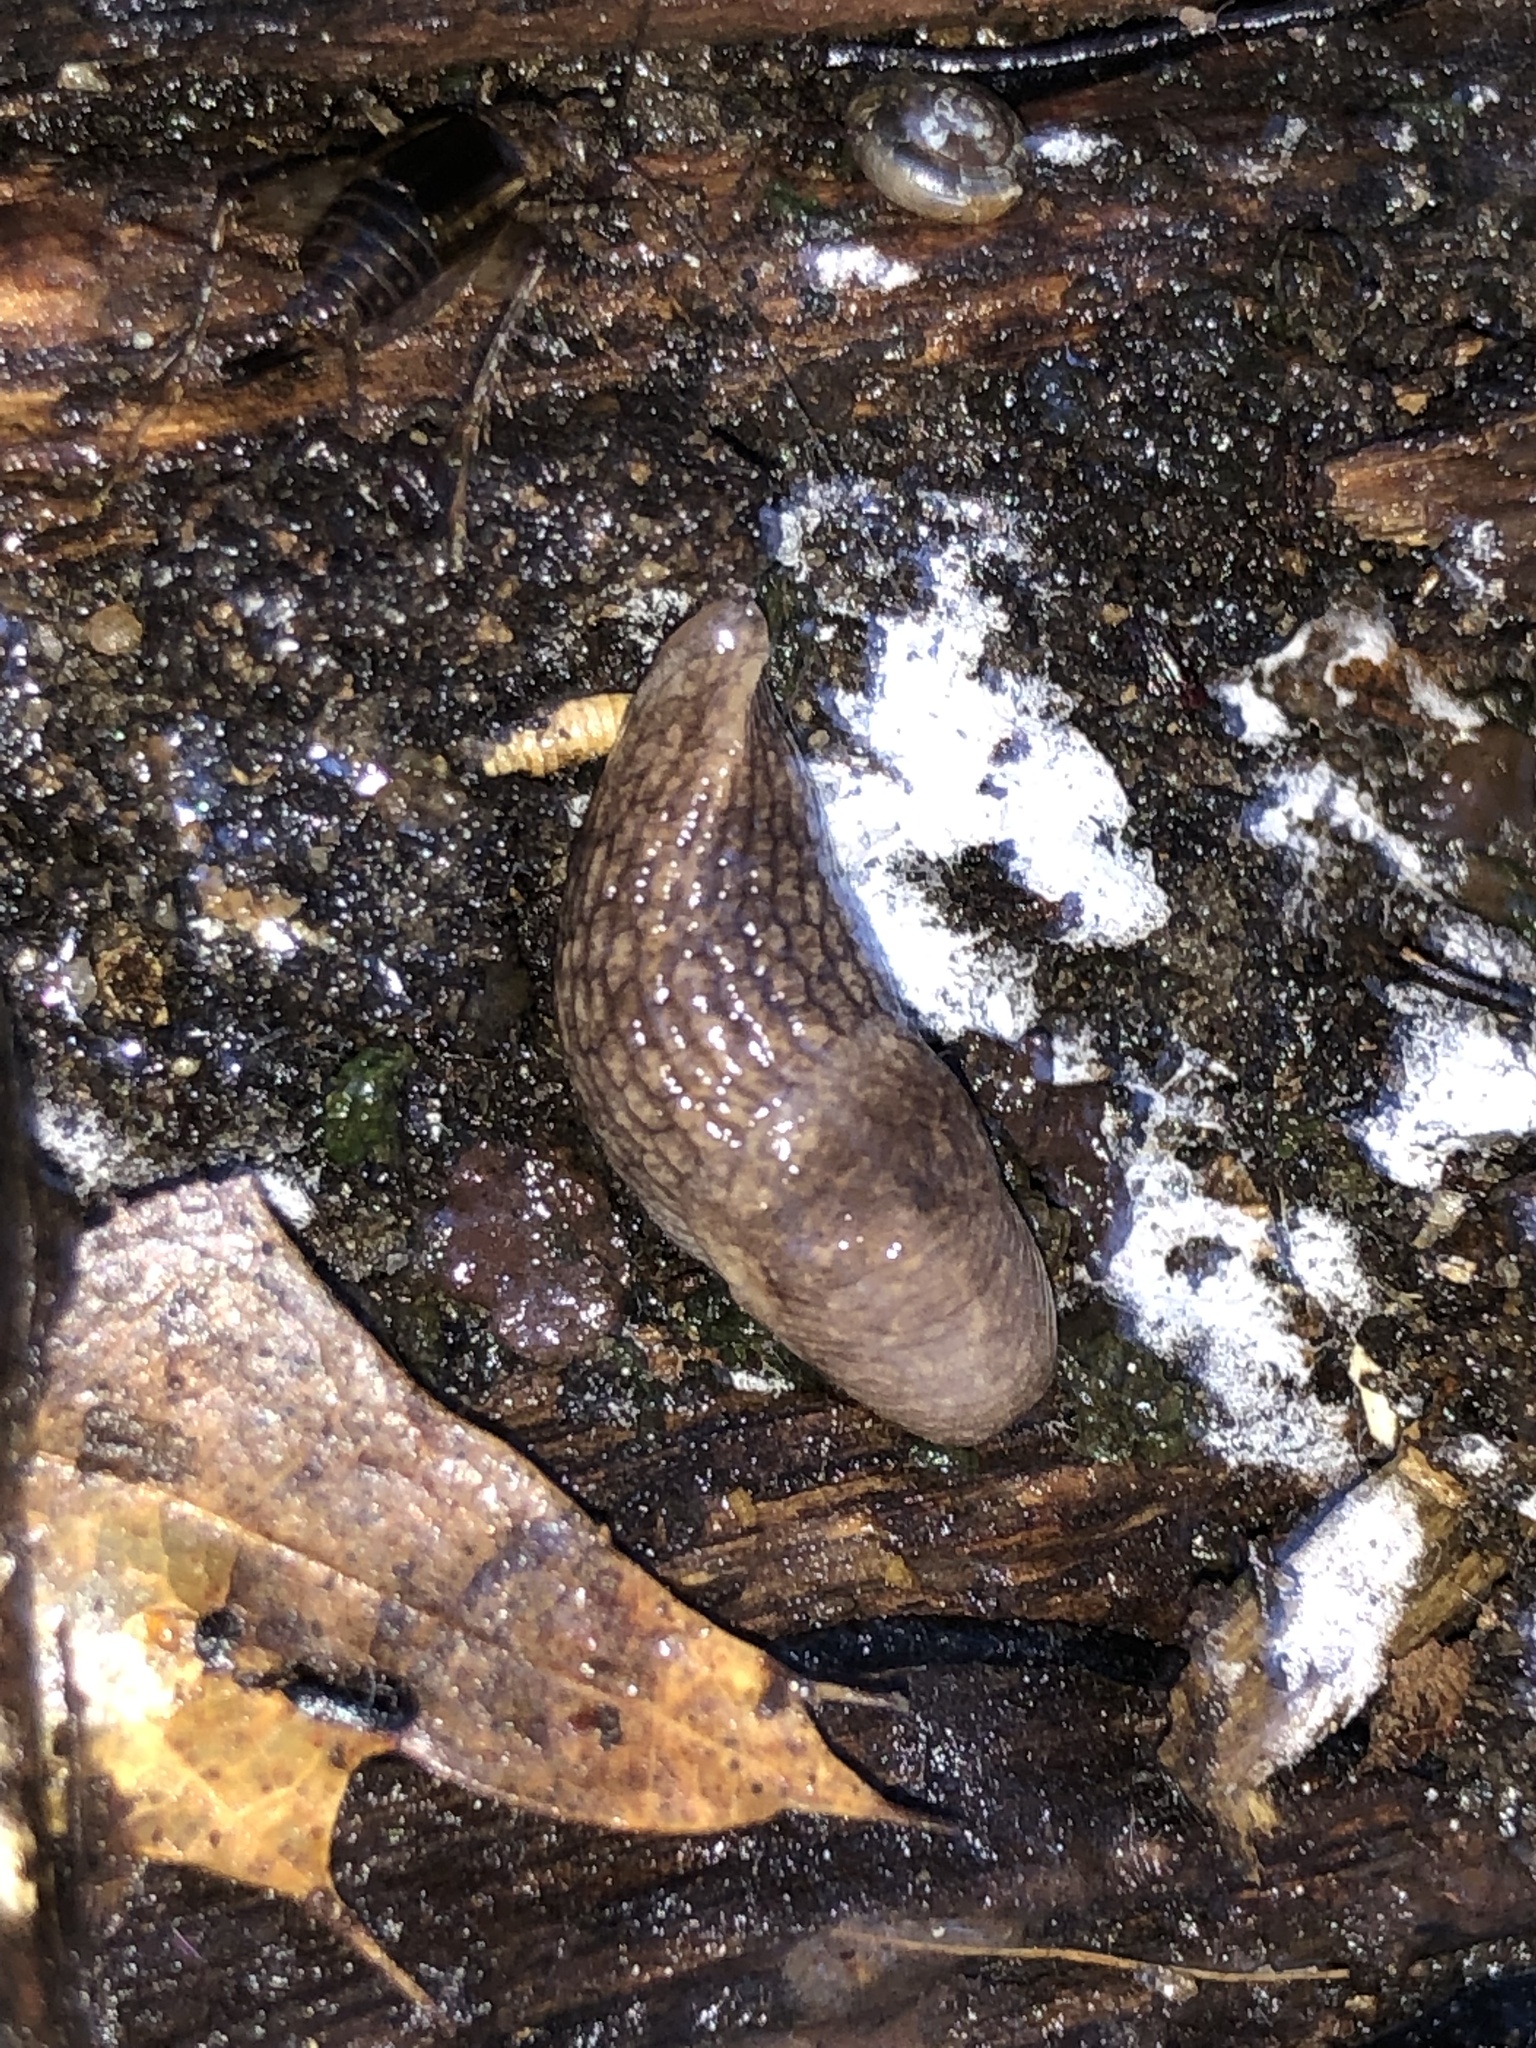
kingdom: Animalia
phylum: Mollusca
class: Gastropoda
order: Stylommatophora
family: Agriolimacidae
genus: Deroceras
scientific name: Deroceras reticulatum
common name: Gray field slug
